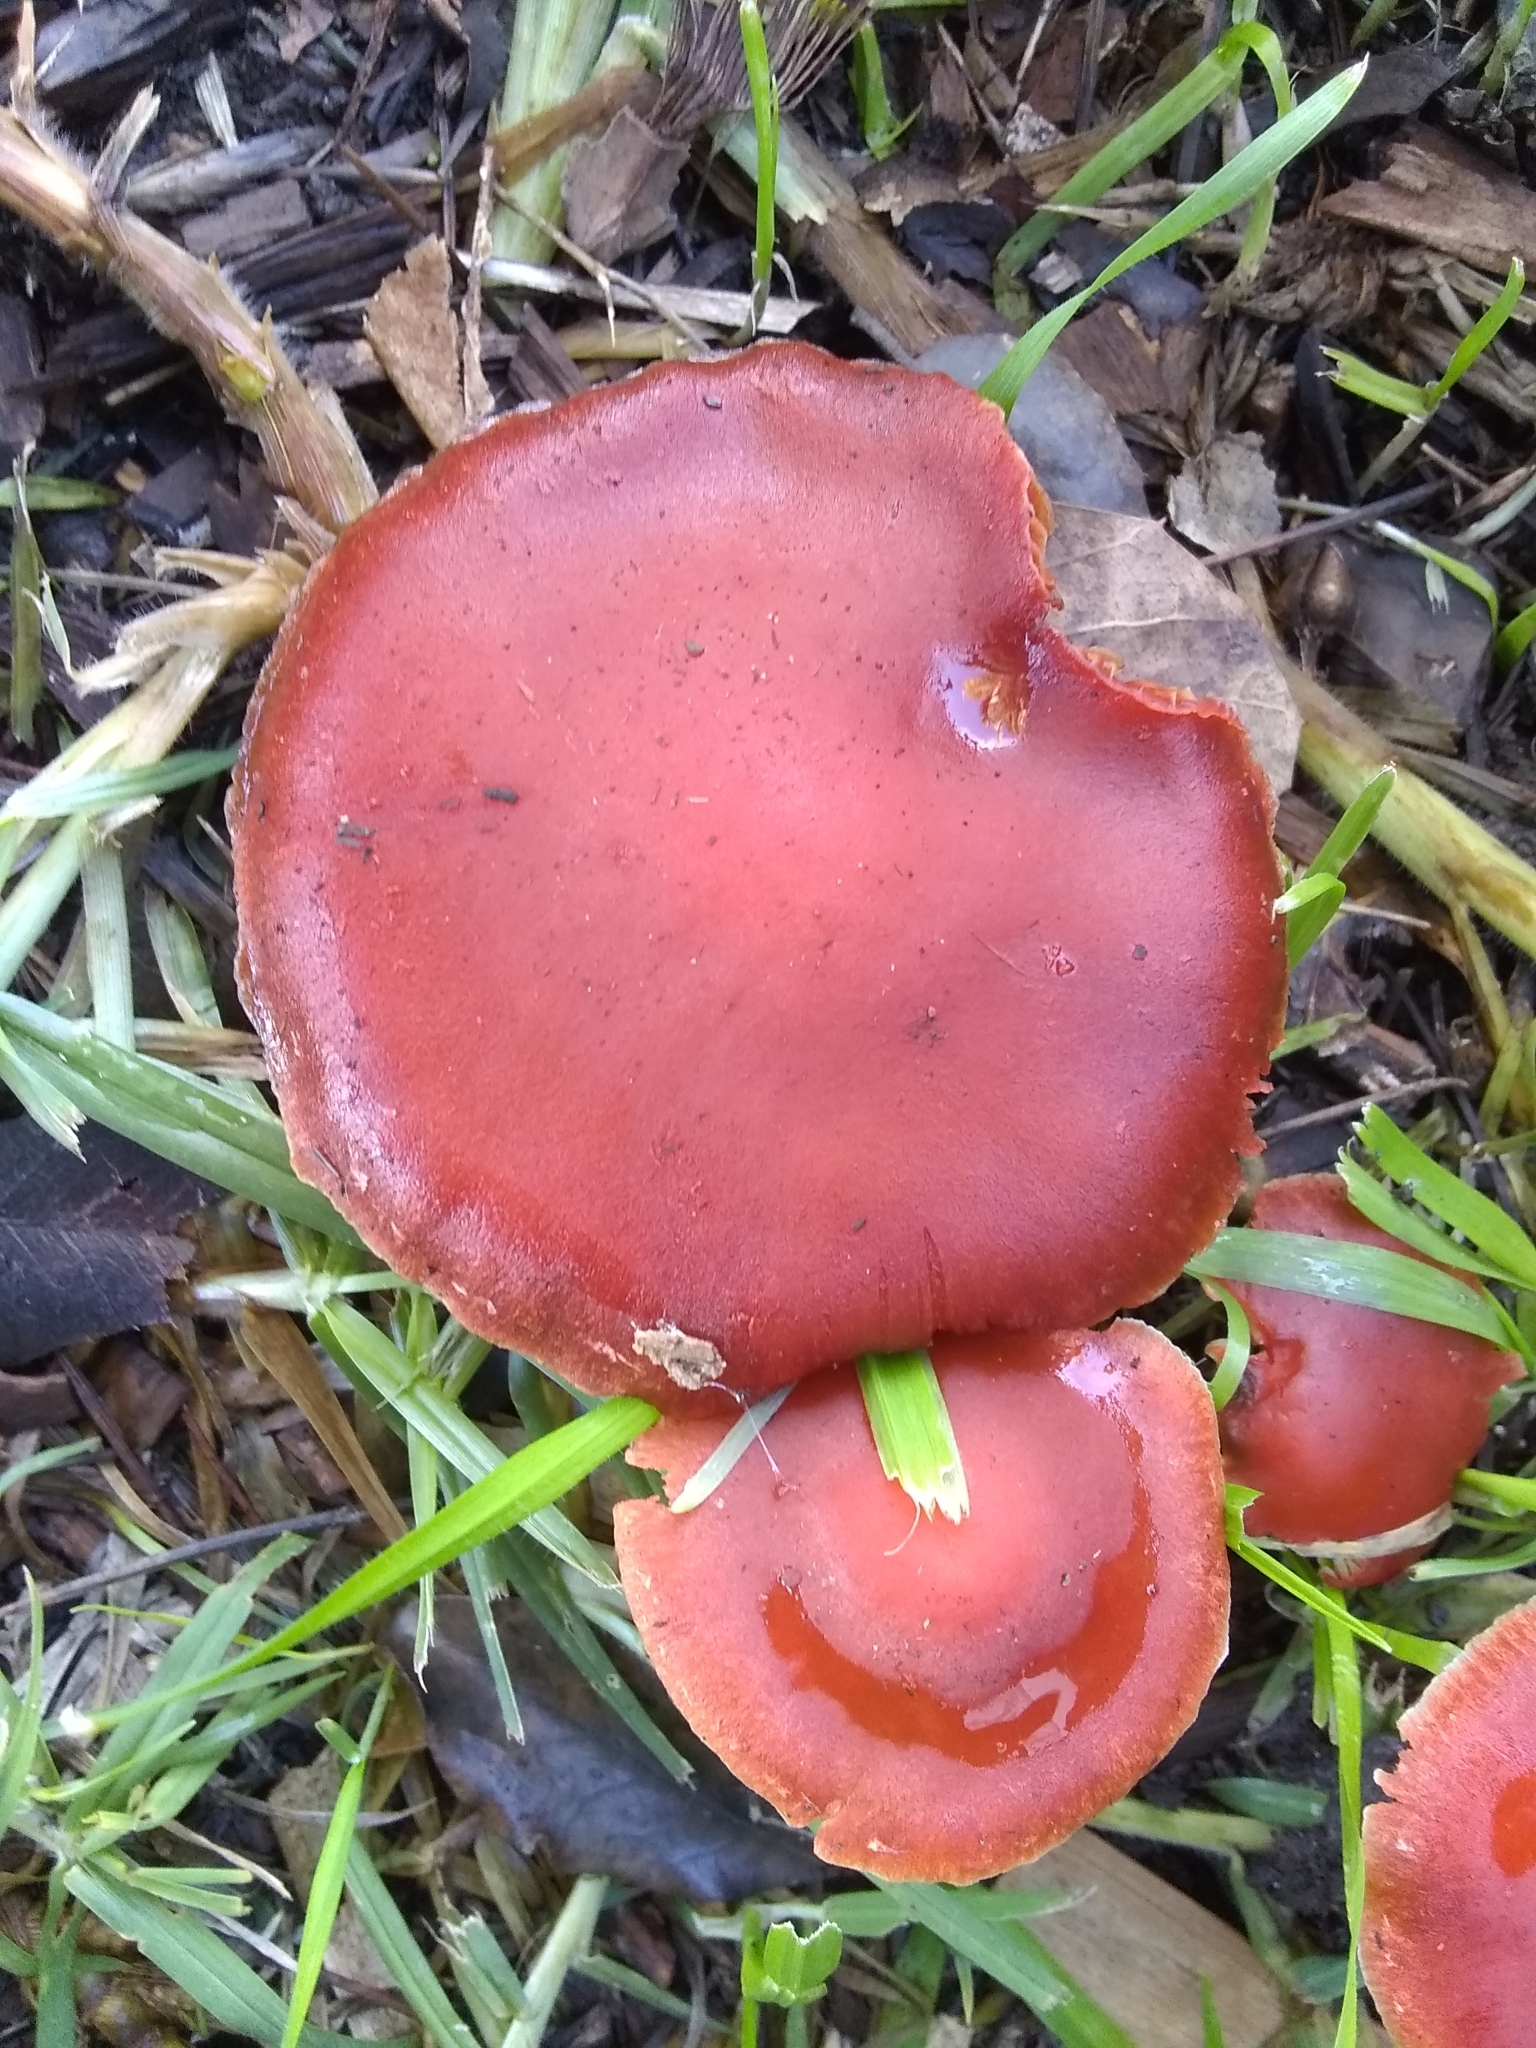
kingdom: Fungi
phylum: Basidiomycota
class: Agaricomycetes
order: Agaricales
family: Strophariaceae
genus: Leratiomyces
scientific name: Leratiomyces ceres
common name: Redlead roundhead
